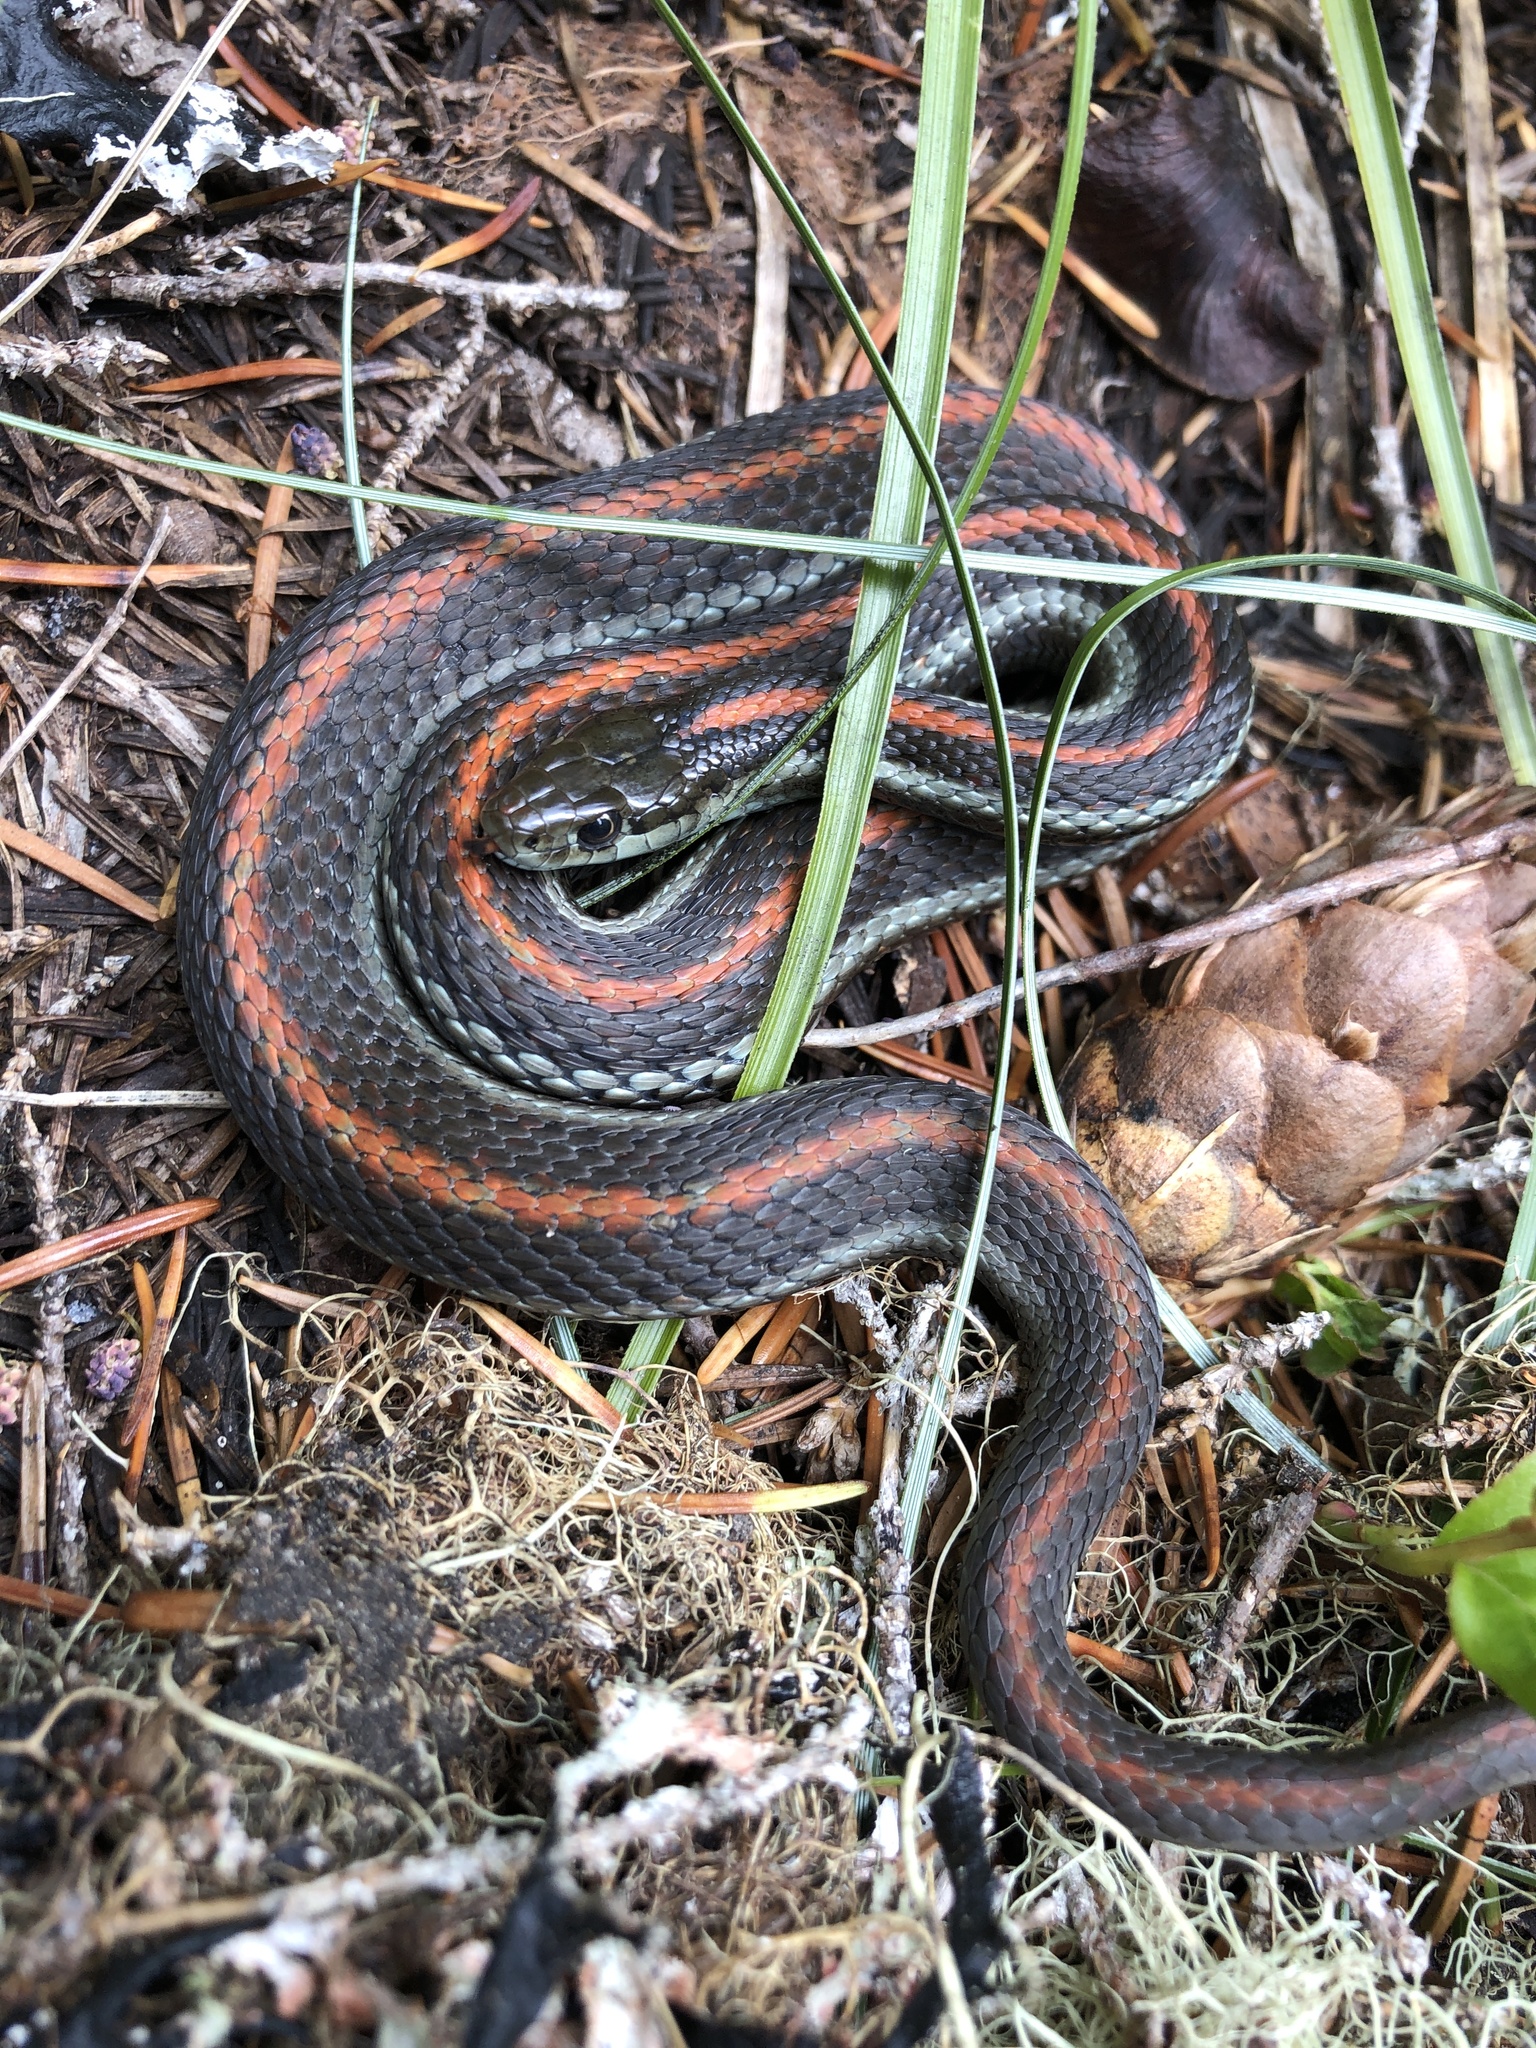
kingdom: Animalia
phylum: Chordata
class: Squamata
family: Colubridae
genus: Thamnophis
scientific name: Thamnophis ordinoides
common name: Northwestern garter snake
